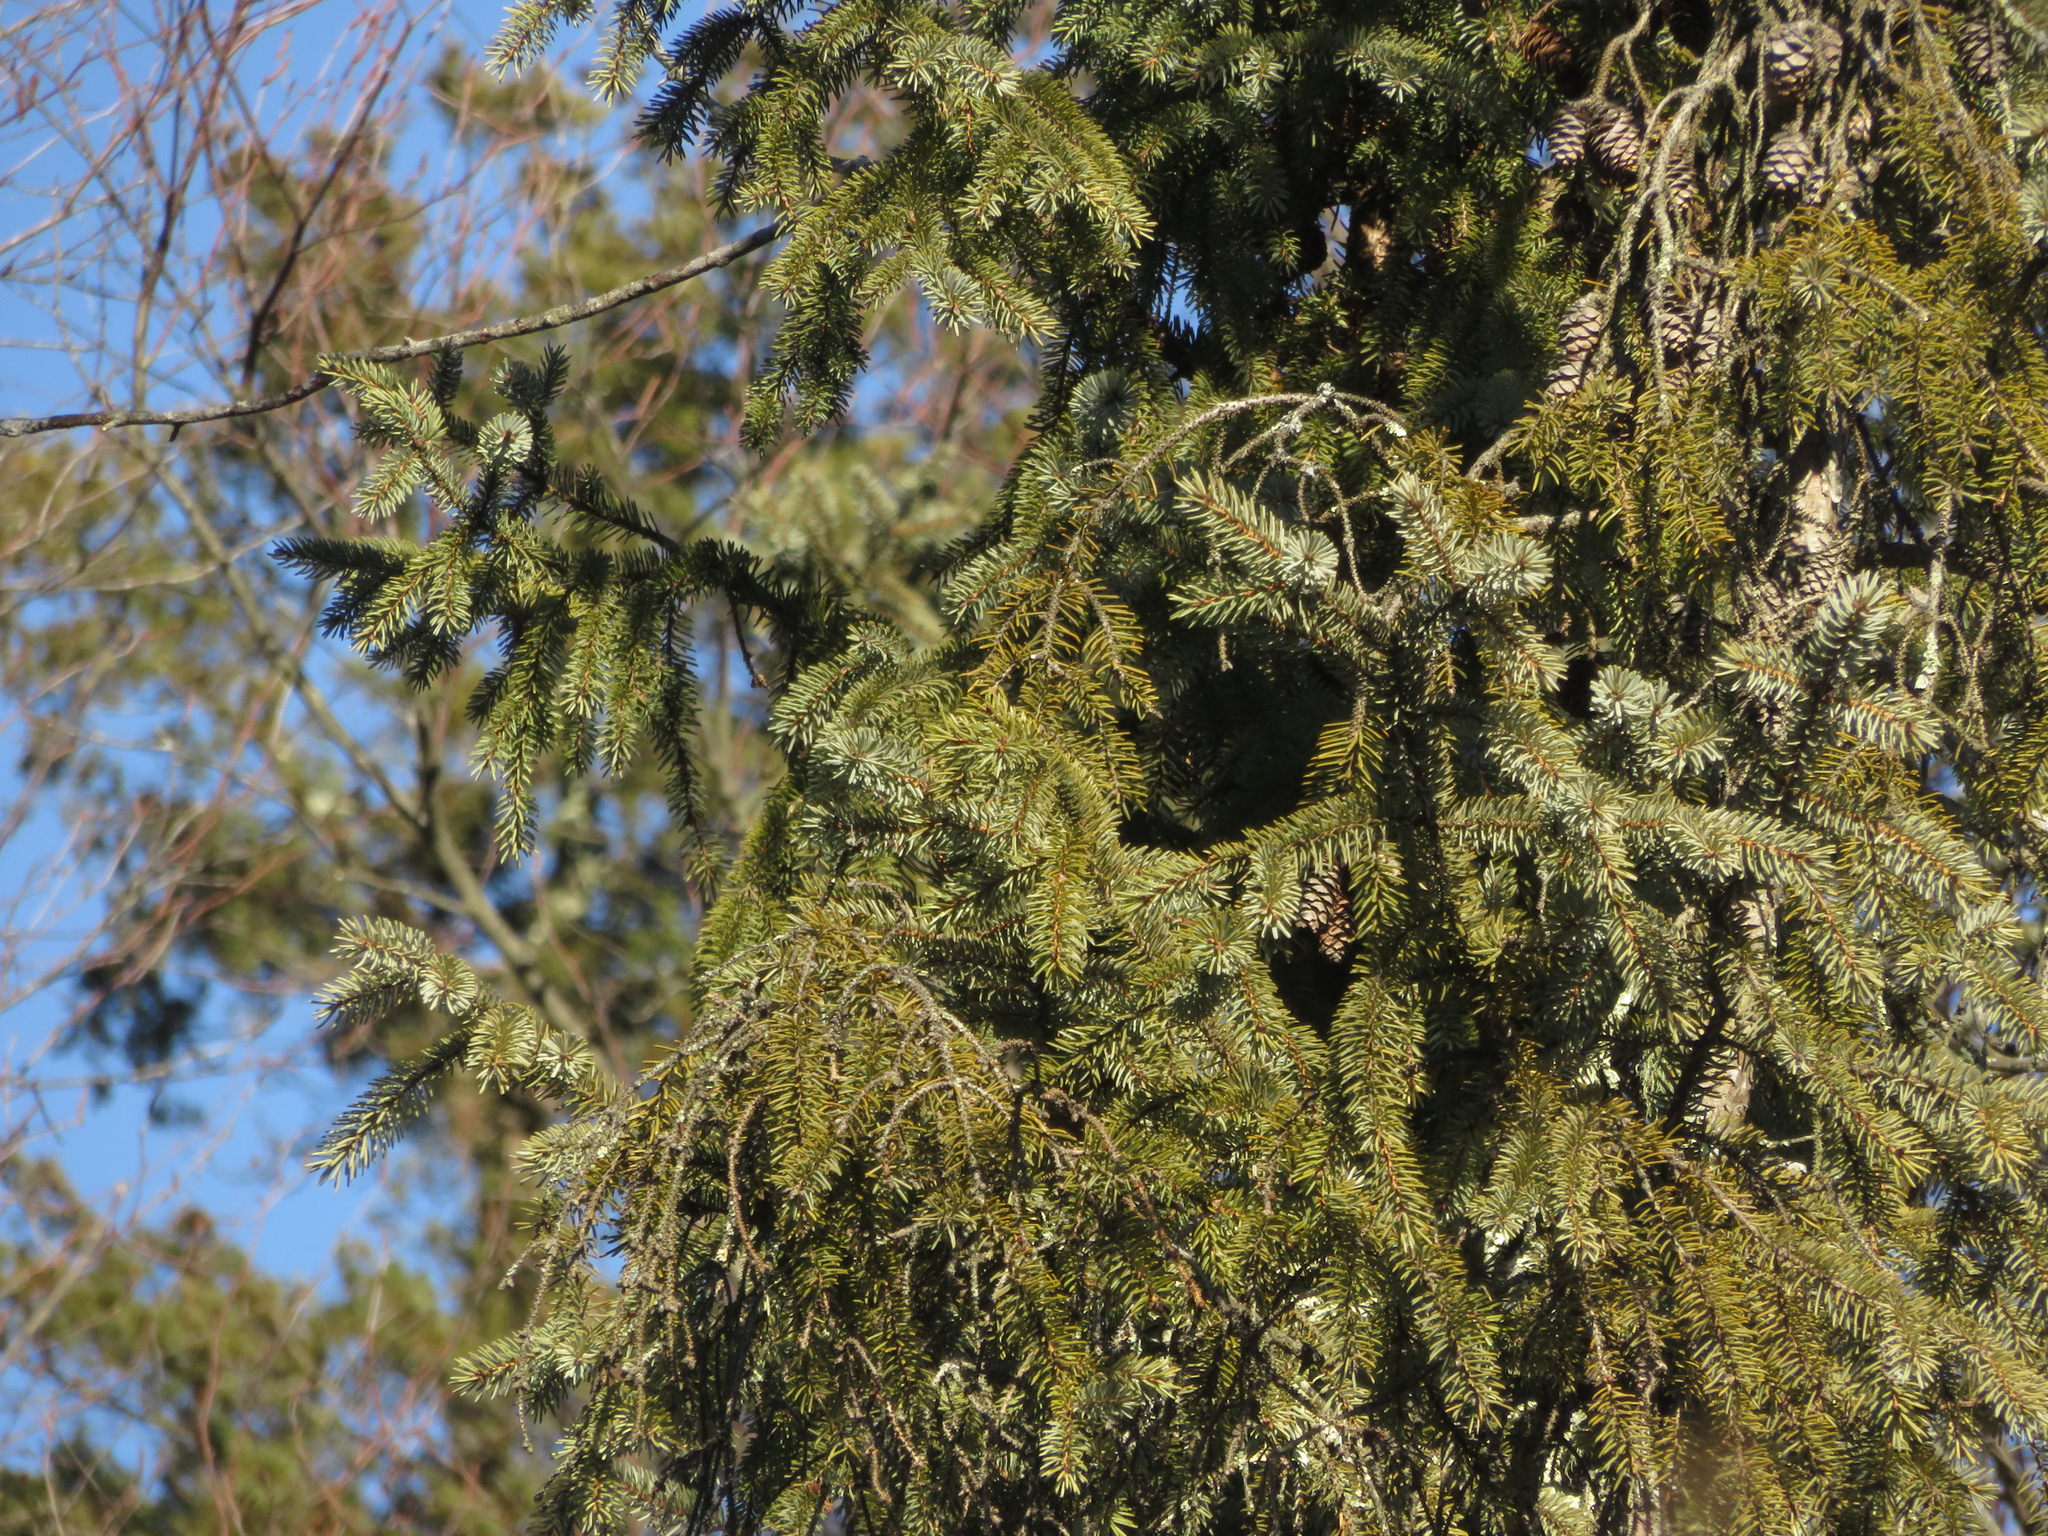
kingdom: Plantae
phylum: Tracheophyta
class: Pinopsida
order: Pinales
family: Pinaceae
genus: Picea
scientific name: Picea mariana
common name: Black spruce
